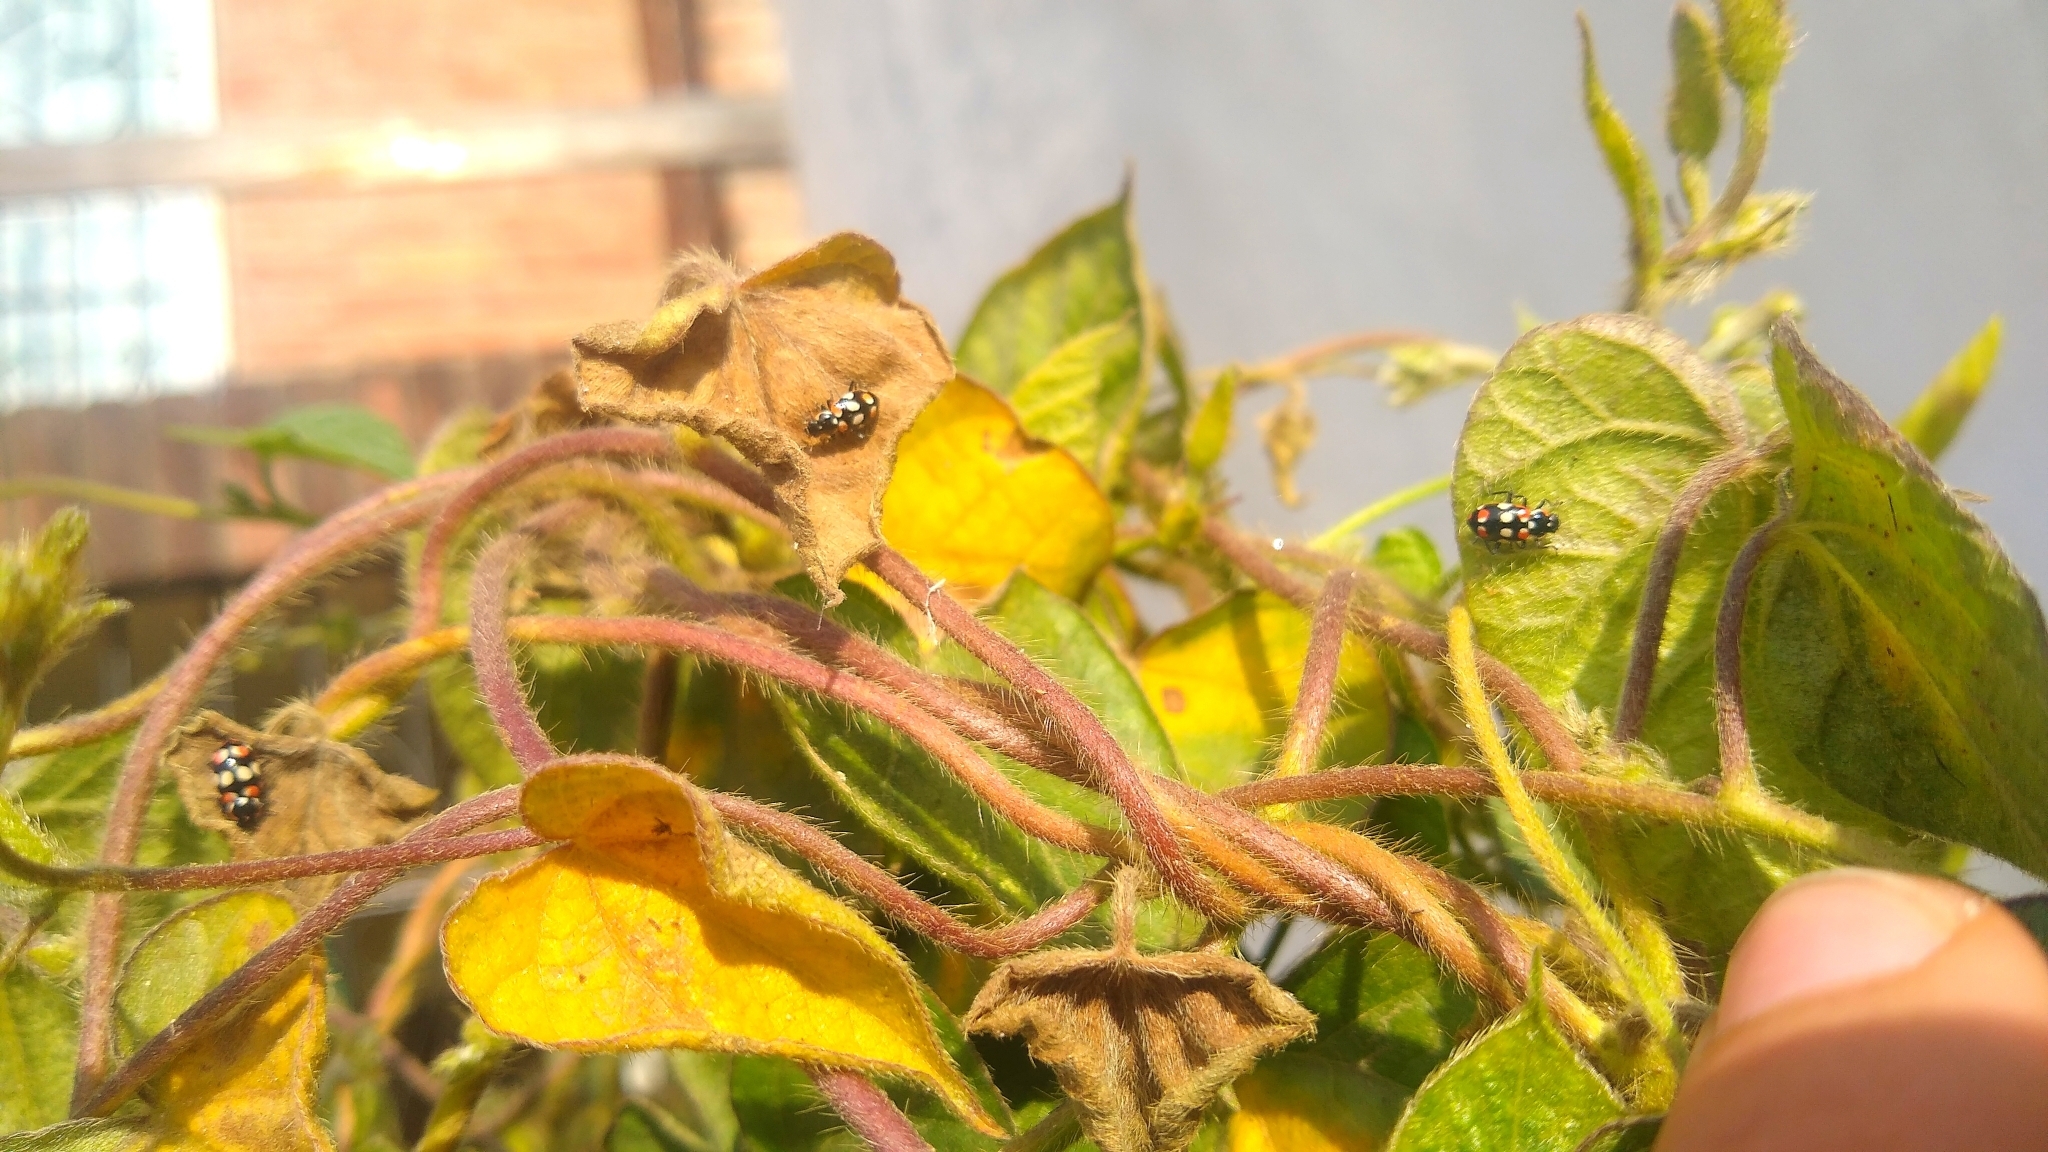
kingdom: Animalia
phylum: Arthropoda
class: Insecta
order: Coleoptera
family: Coccinellidae
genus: Eriopis
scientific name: Eriopis connexa
